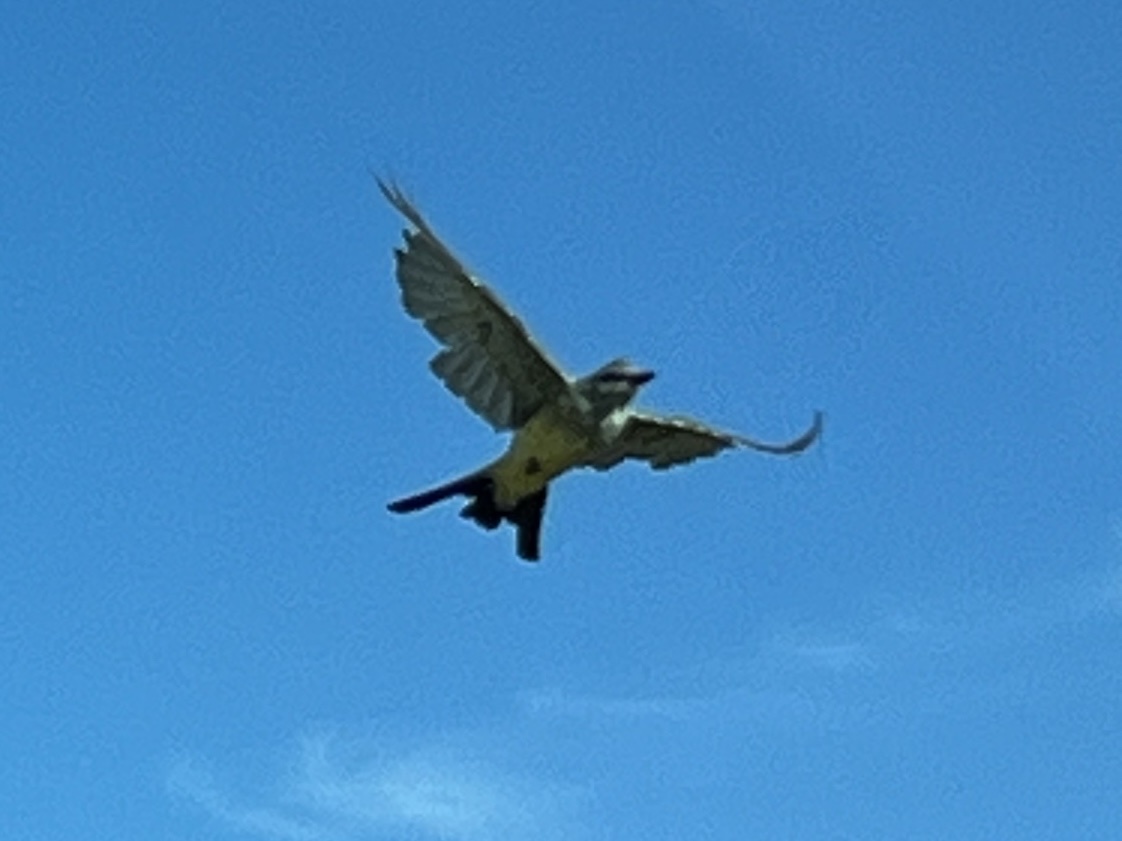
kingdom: Animalia
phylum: Chordata
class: Aves
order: Passeriformes
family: Tyrannidae
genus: Tyrannus
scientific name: Tyrannus vociferans
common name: Cassin's kingbird
